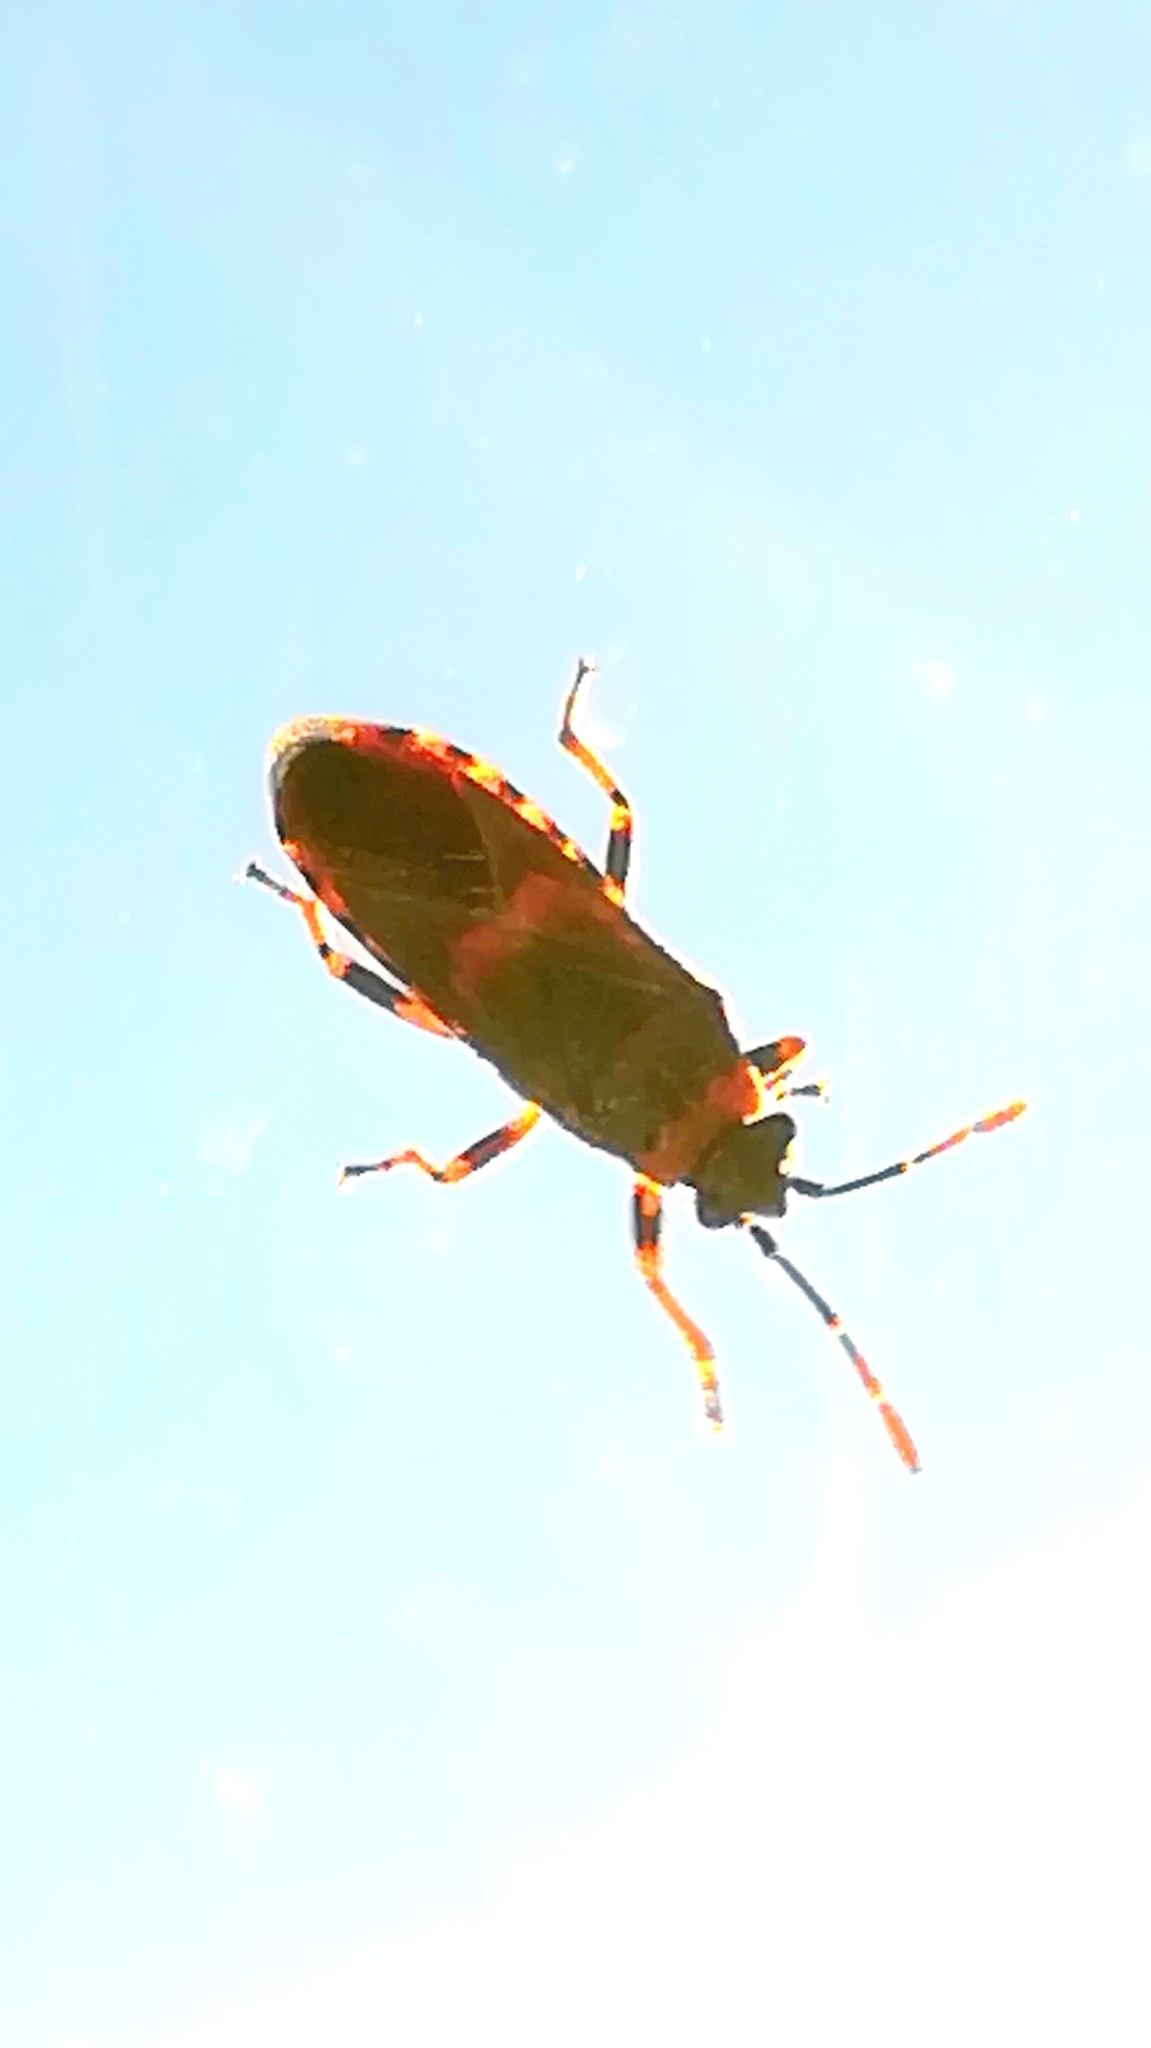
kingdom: Animalia
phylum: Arthropoda
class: Insecta
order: Hemiptera
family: Lygaeidae
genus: Arocatus
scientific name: Arocatus melanocephalus
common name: Lygaeid bug
